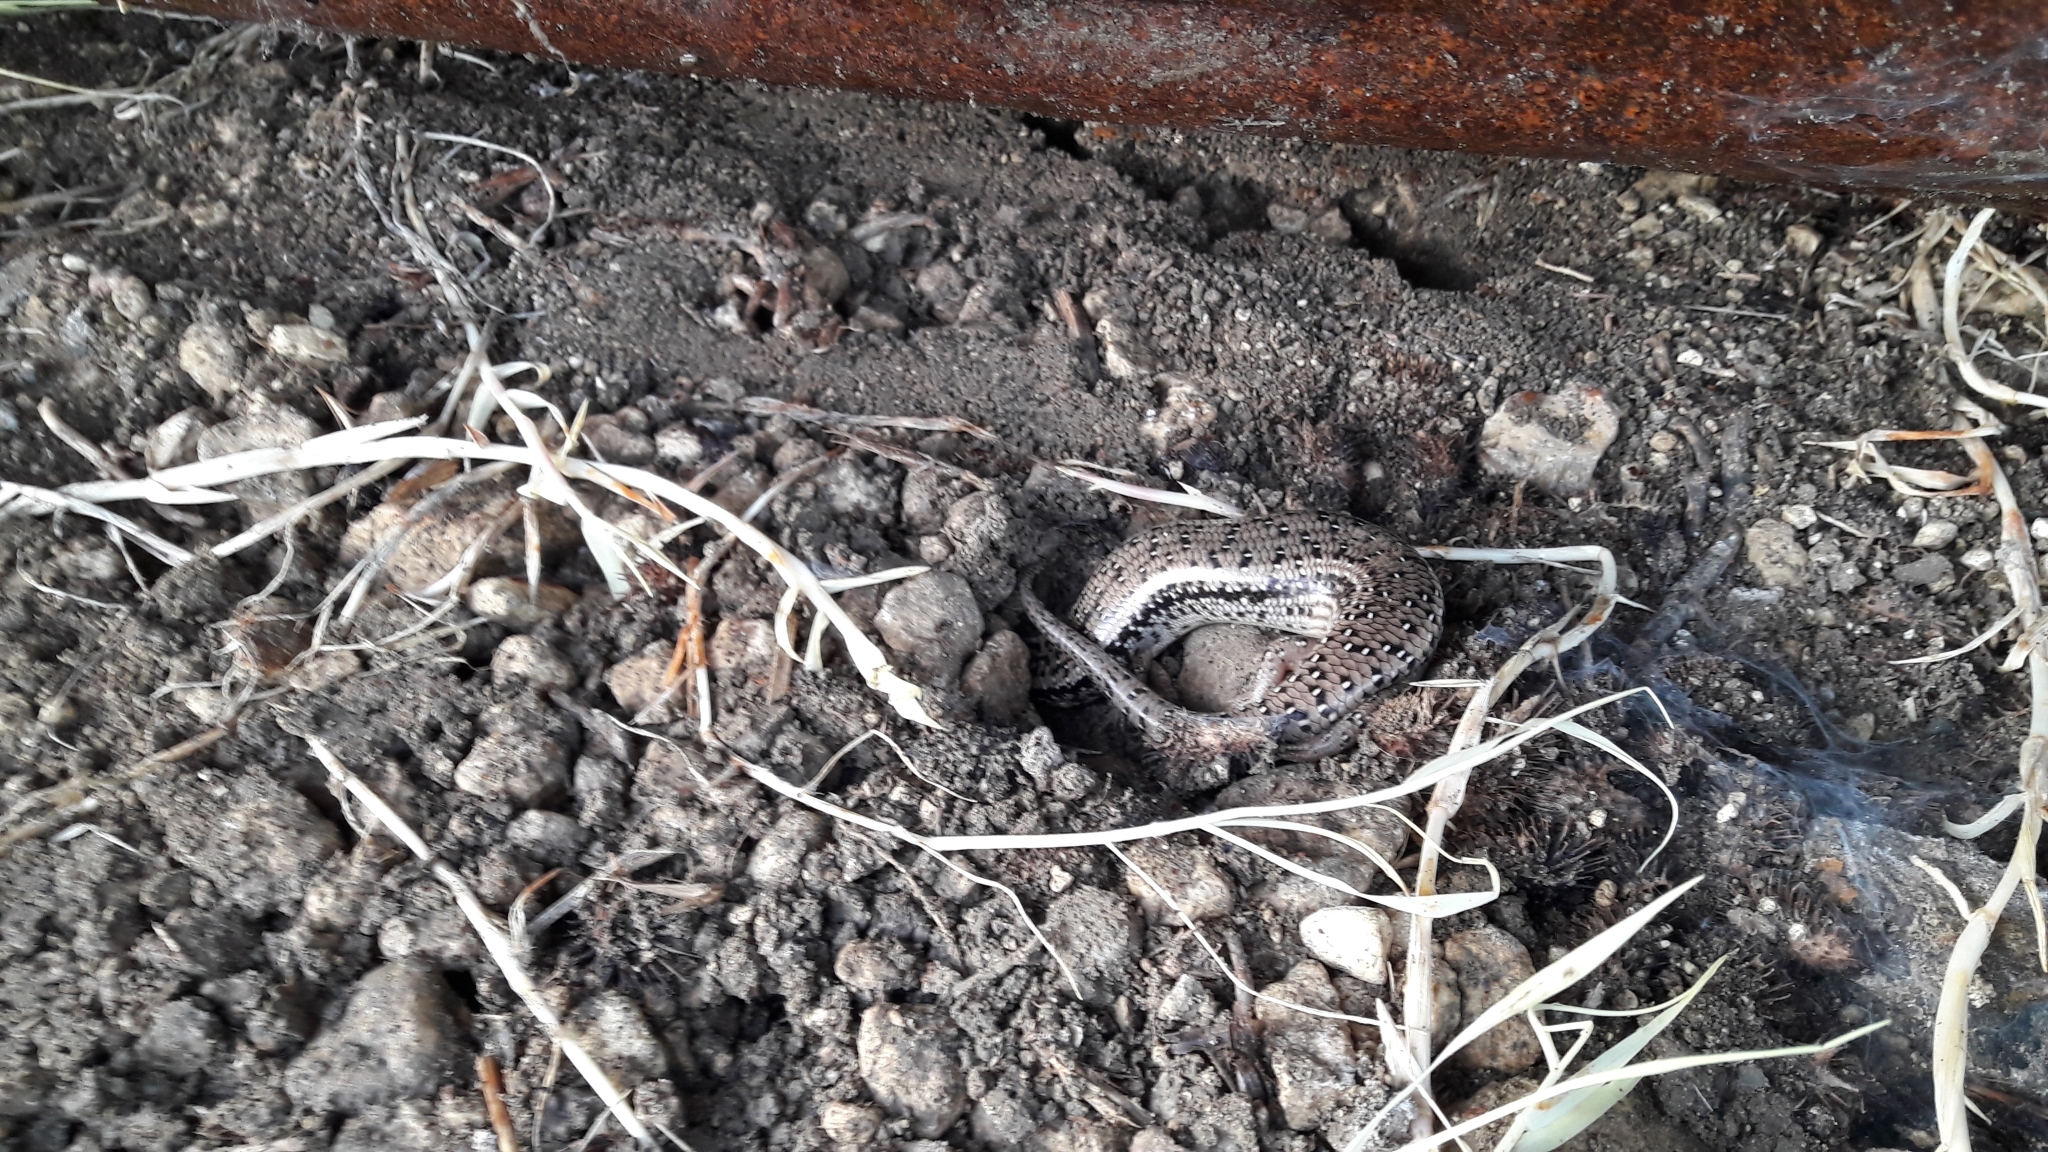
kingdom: Animalia
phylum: Chordata
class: Squamata
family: Scincidae
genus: Chalcides
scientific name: Chalcides ocellatus
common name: Ocellated skink
